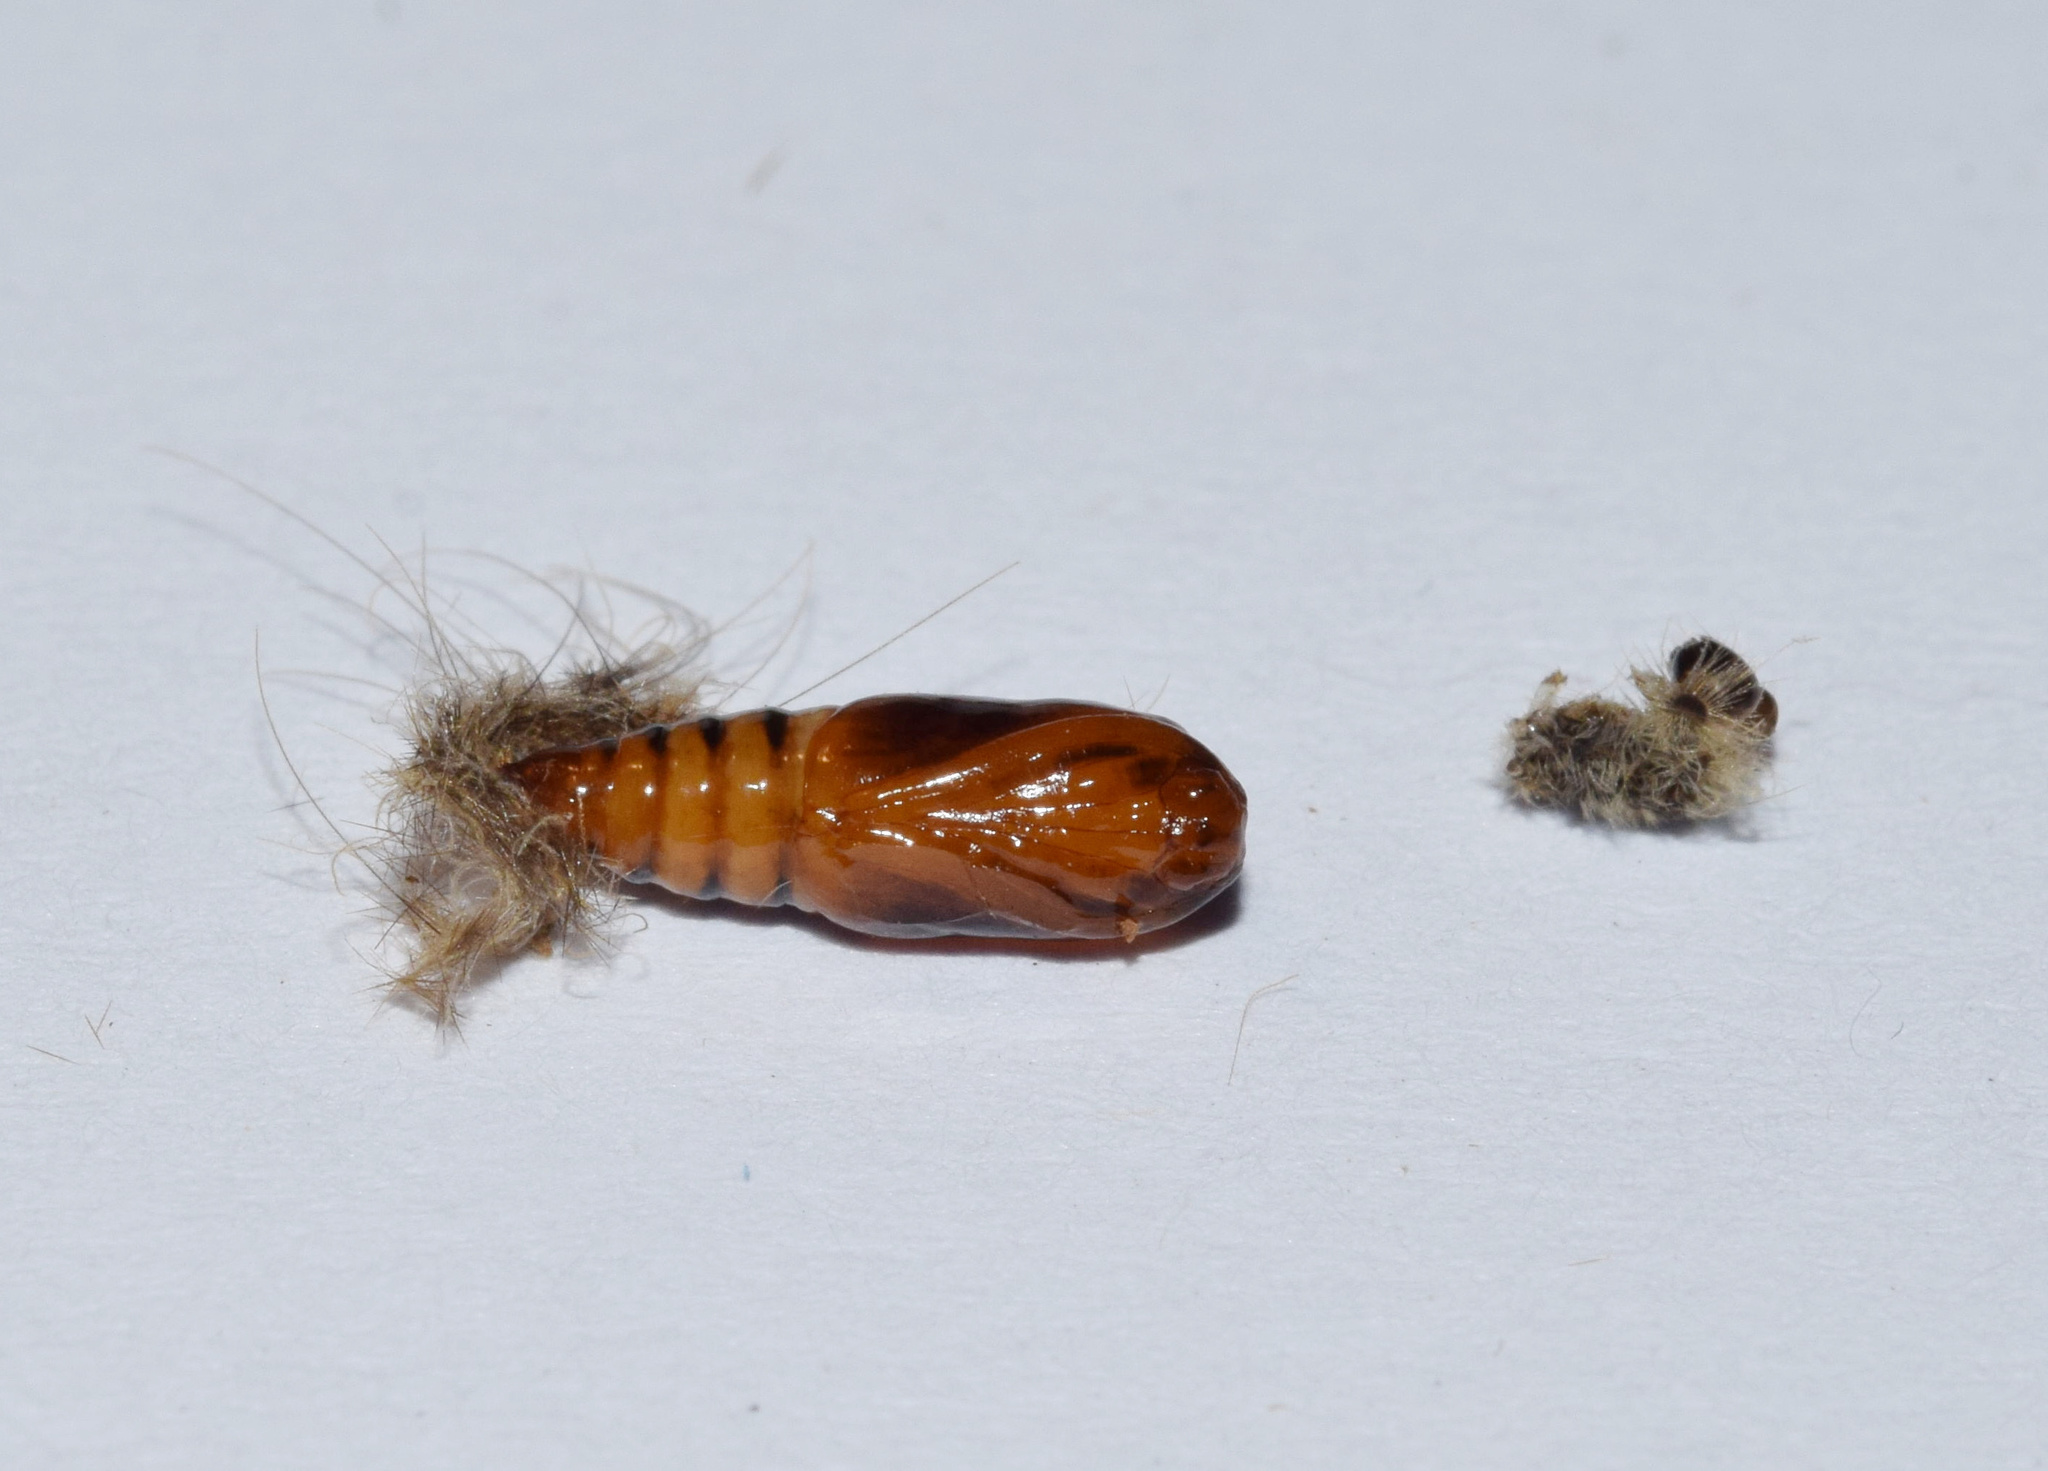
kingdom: Animalia
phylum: Arthropoda
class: Insecta
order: Lepidoptera
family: Erebidae
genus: Tumicla
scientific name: Tumicla sagenaria
